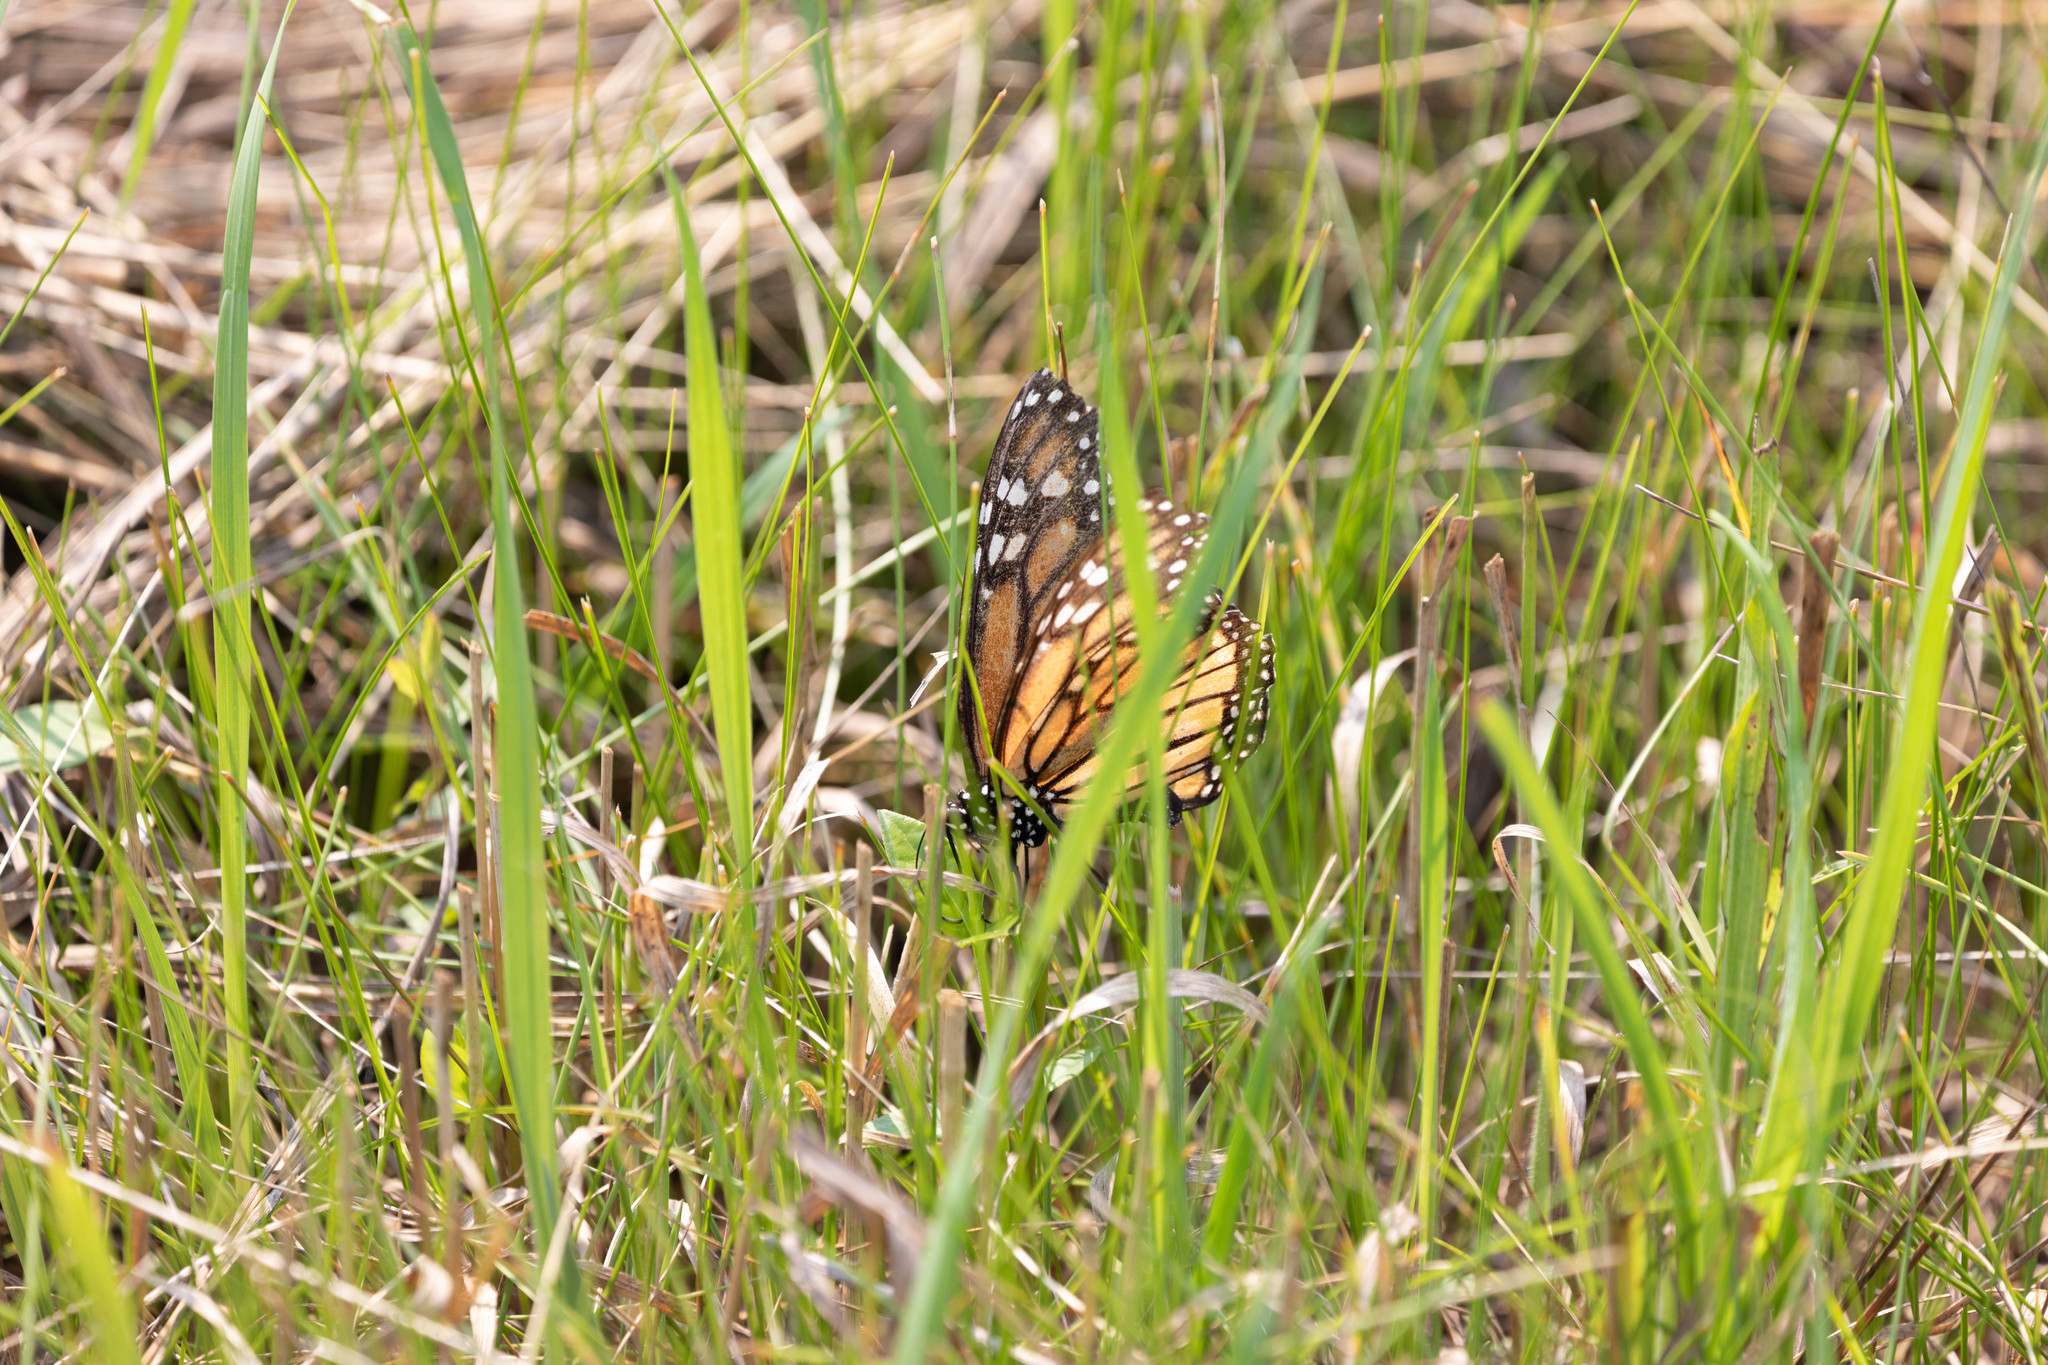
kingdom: Animalia
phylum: Arthropoda
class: Insecta
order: Lepidoptera
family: Nymphalidae
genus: Danaus
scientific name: Danaus plexippus
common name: Monarch
